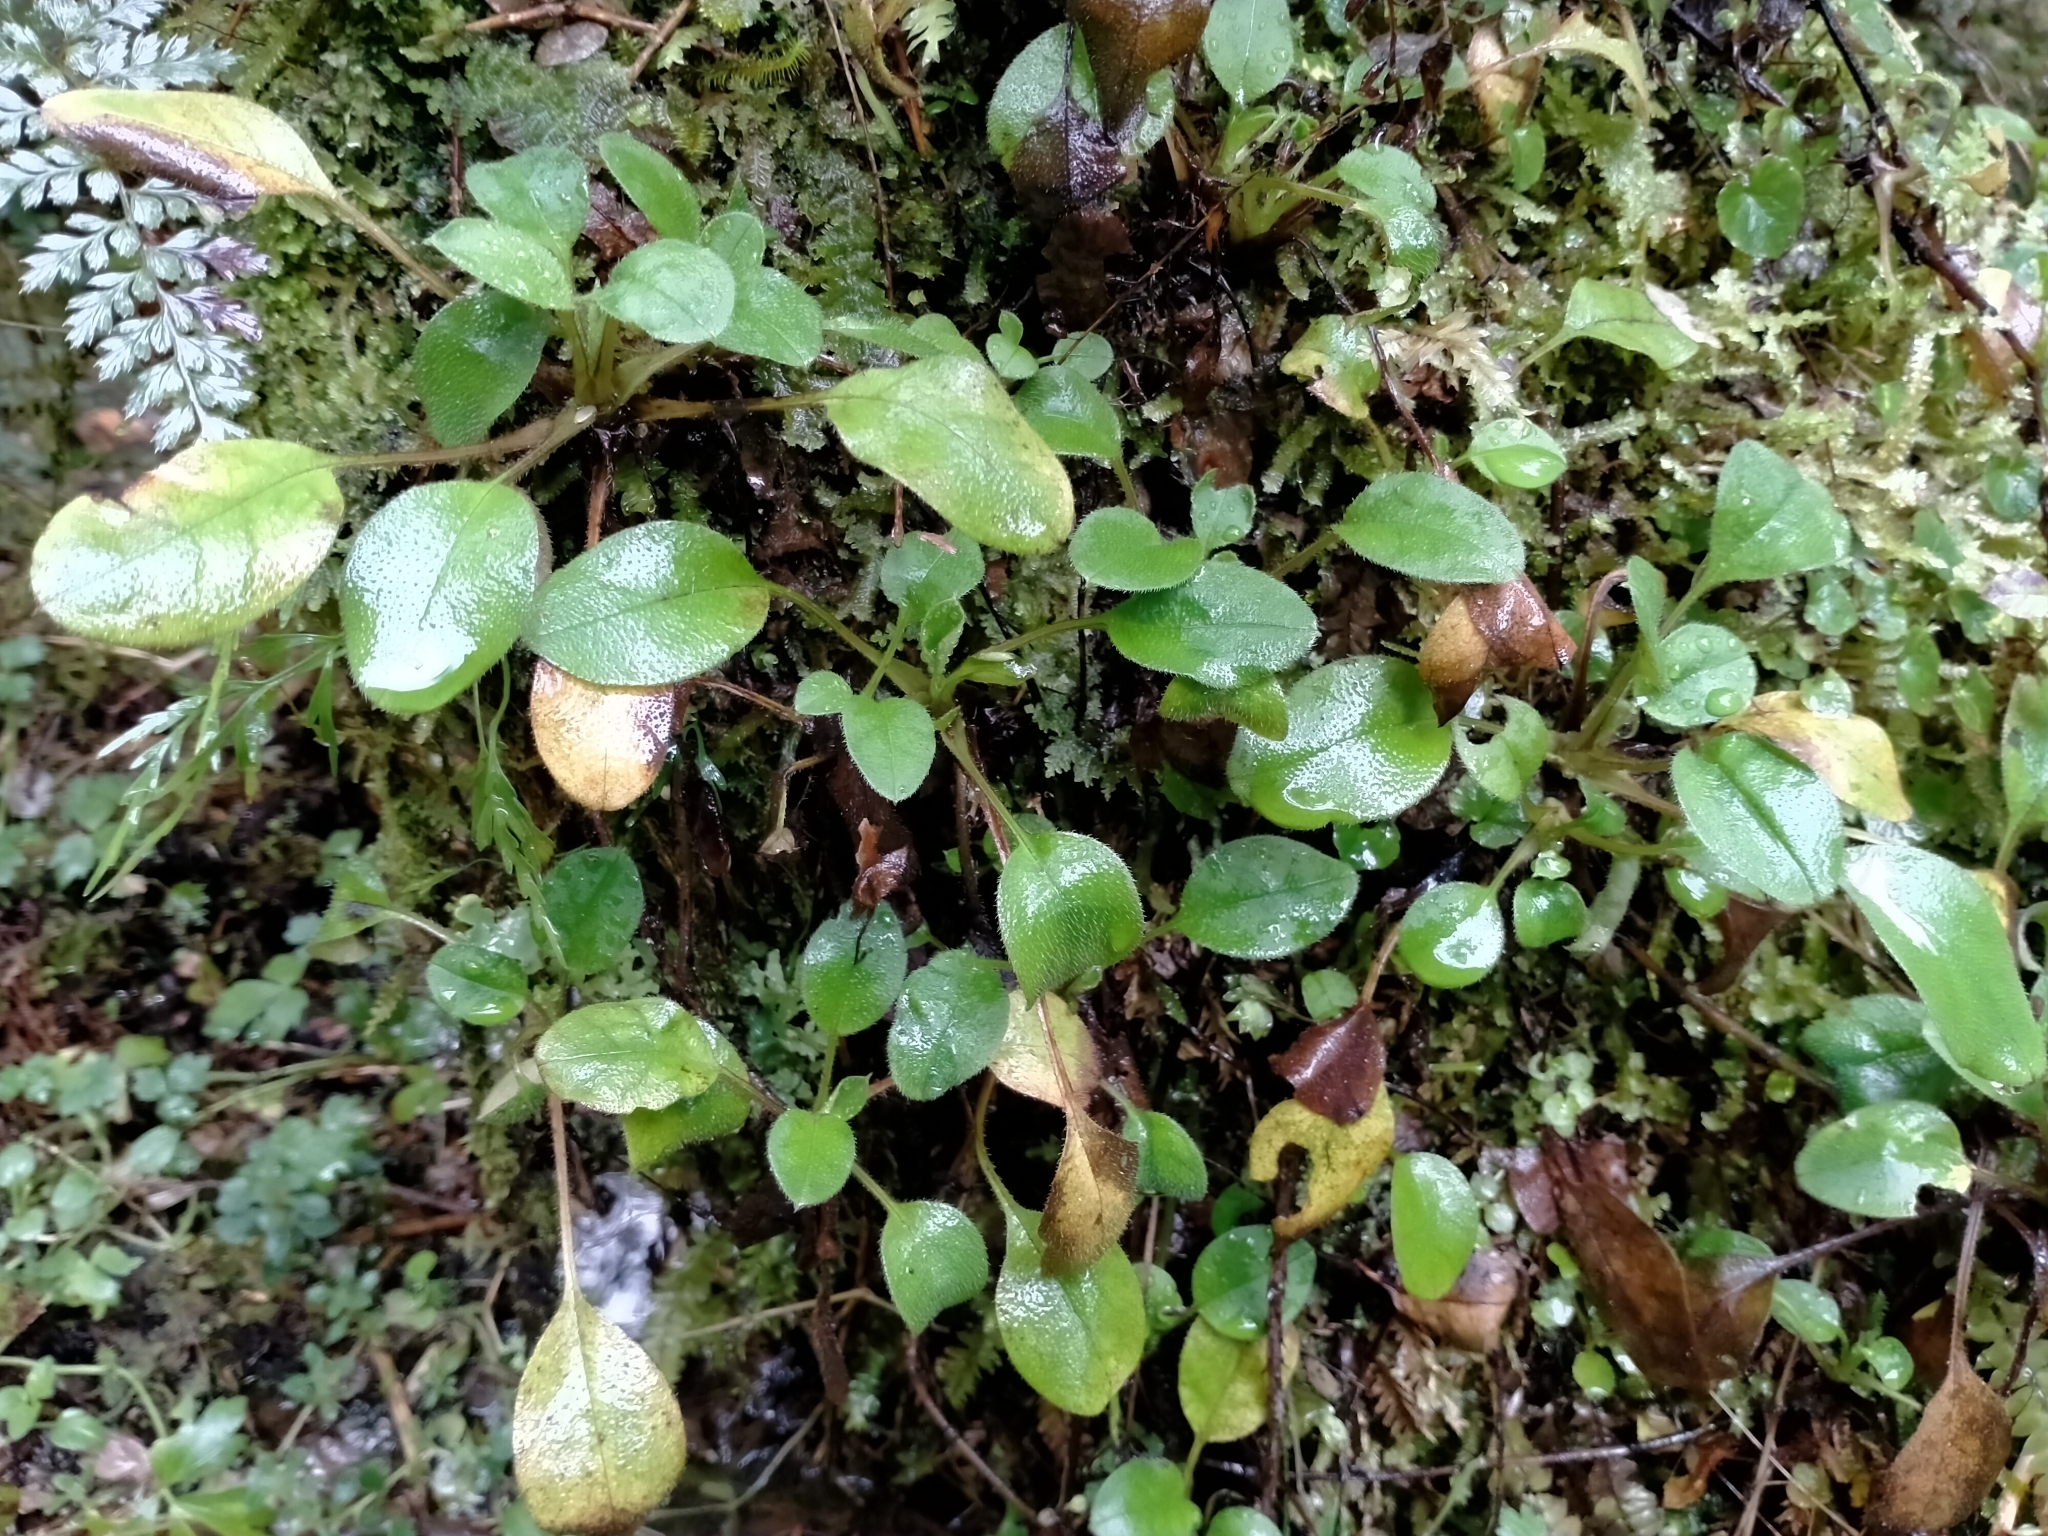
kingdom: Plantae
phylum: Tracheophyta
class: Magnoliopsida
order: Boraginales
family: Boraginaceae
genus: Myosotis
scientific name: Myosotis forsteri
